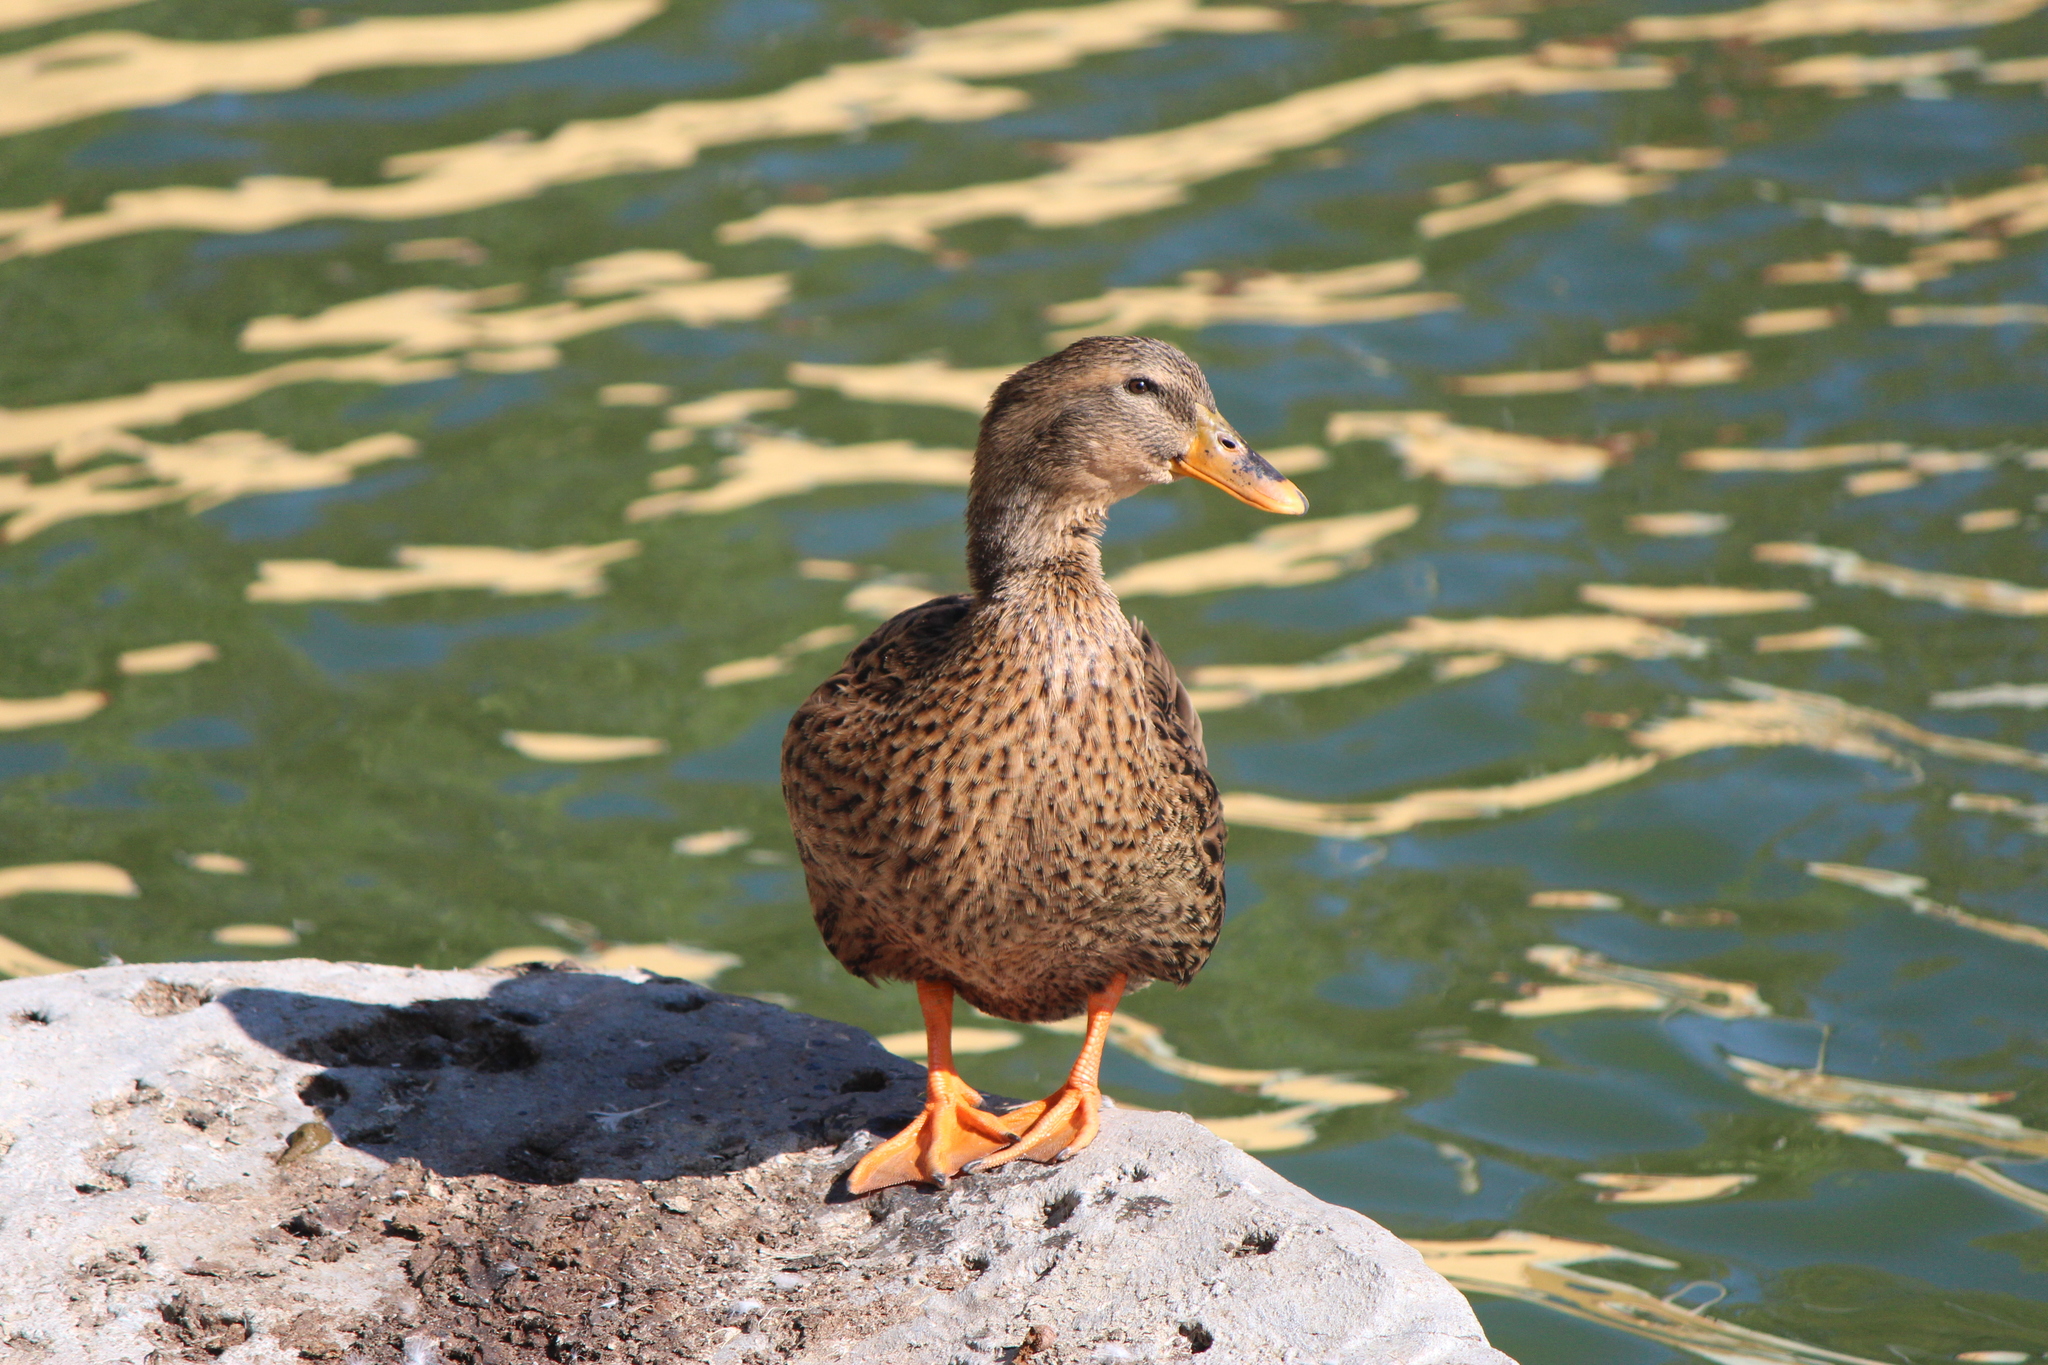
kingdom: Animalia
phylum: Chordata
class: Aves
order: Anseriformes
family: Anatidae
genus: Anas
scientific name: Anas platyrhynchos
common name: Mallard
